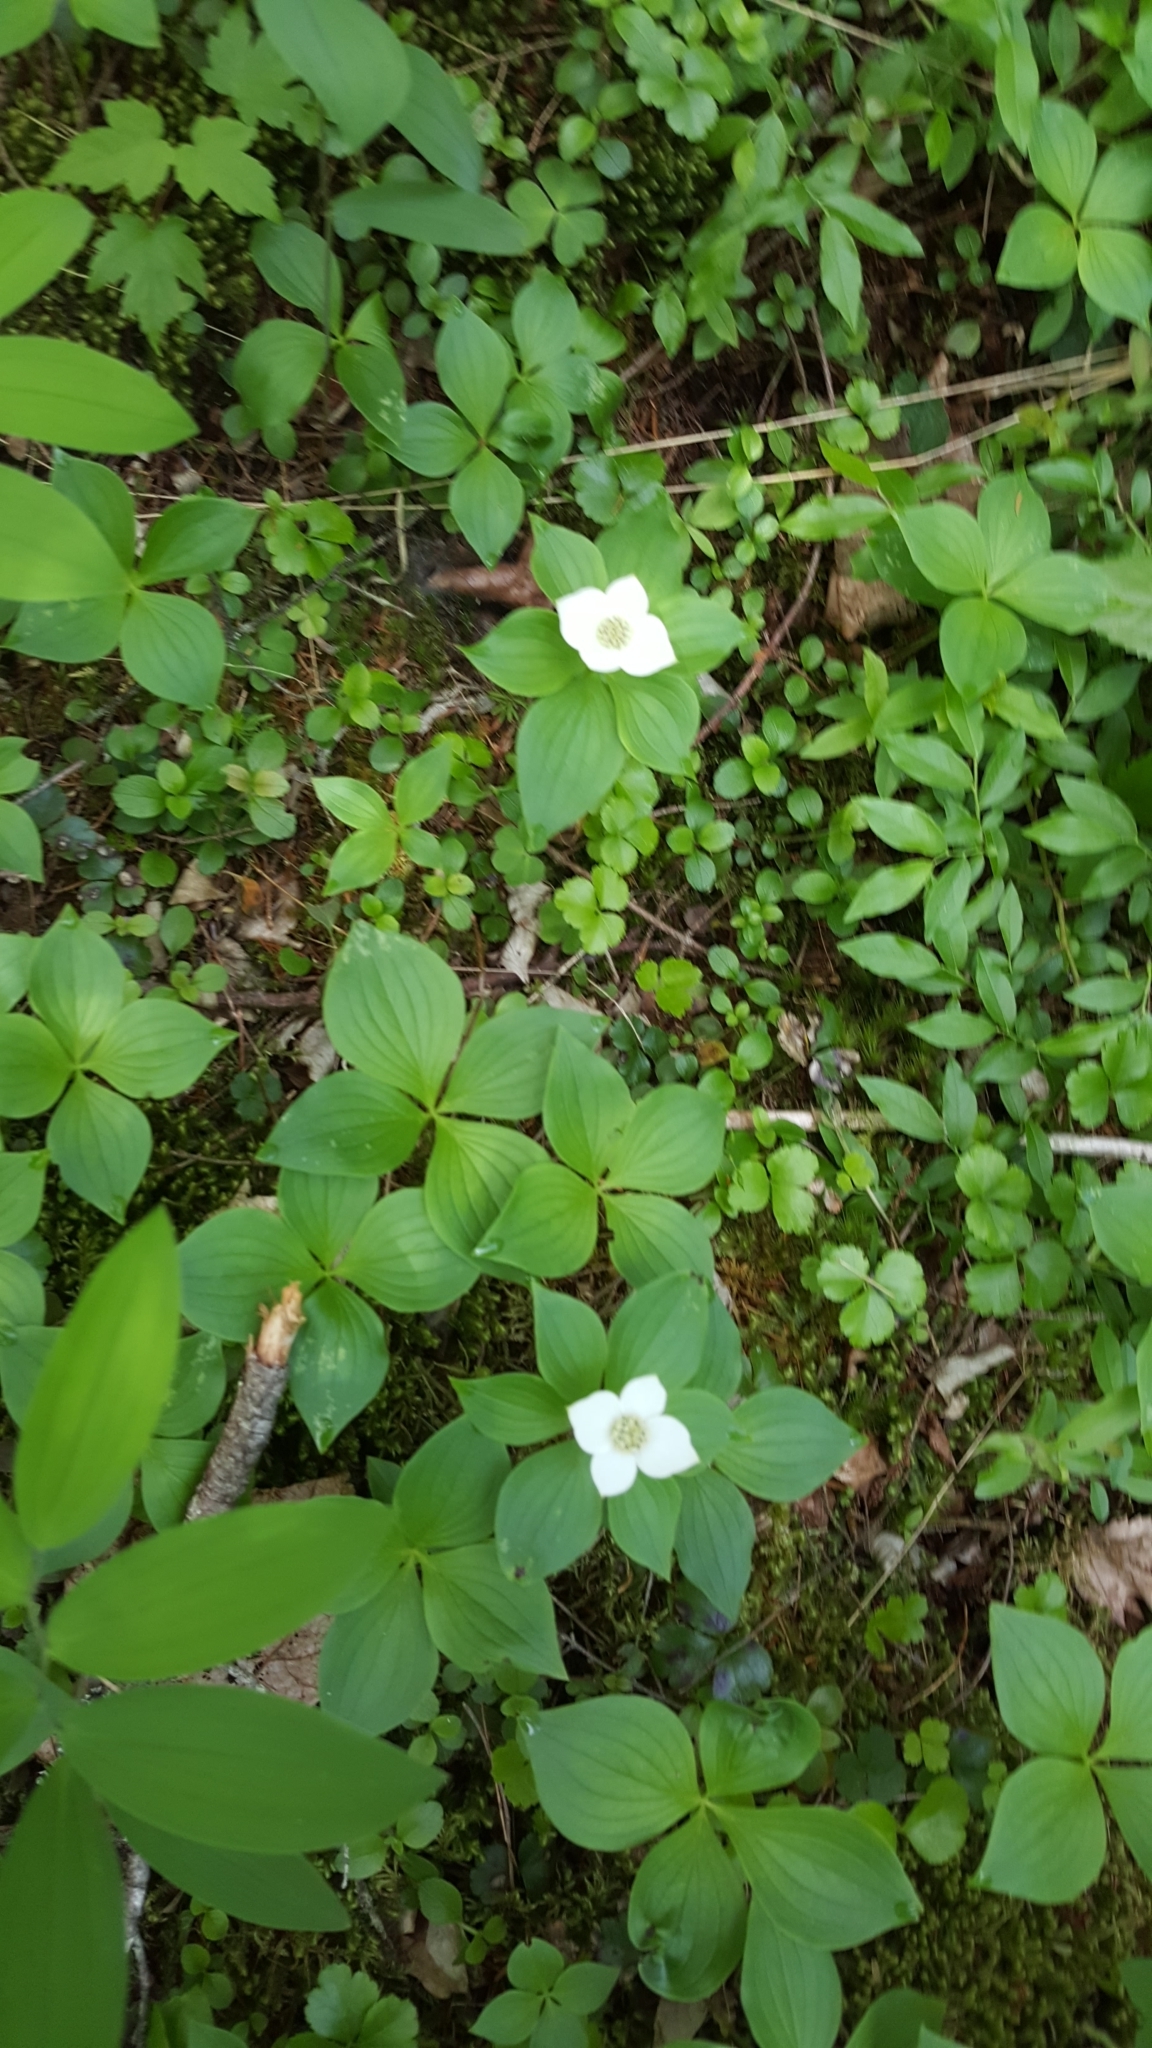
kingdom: Plantae
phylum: Tracheophyta
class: Magnoliopsida
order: Cornales
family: Cornaceae
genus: Cornus
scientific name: Cornus canadensis
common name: Creeping dogwood
